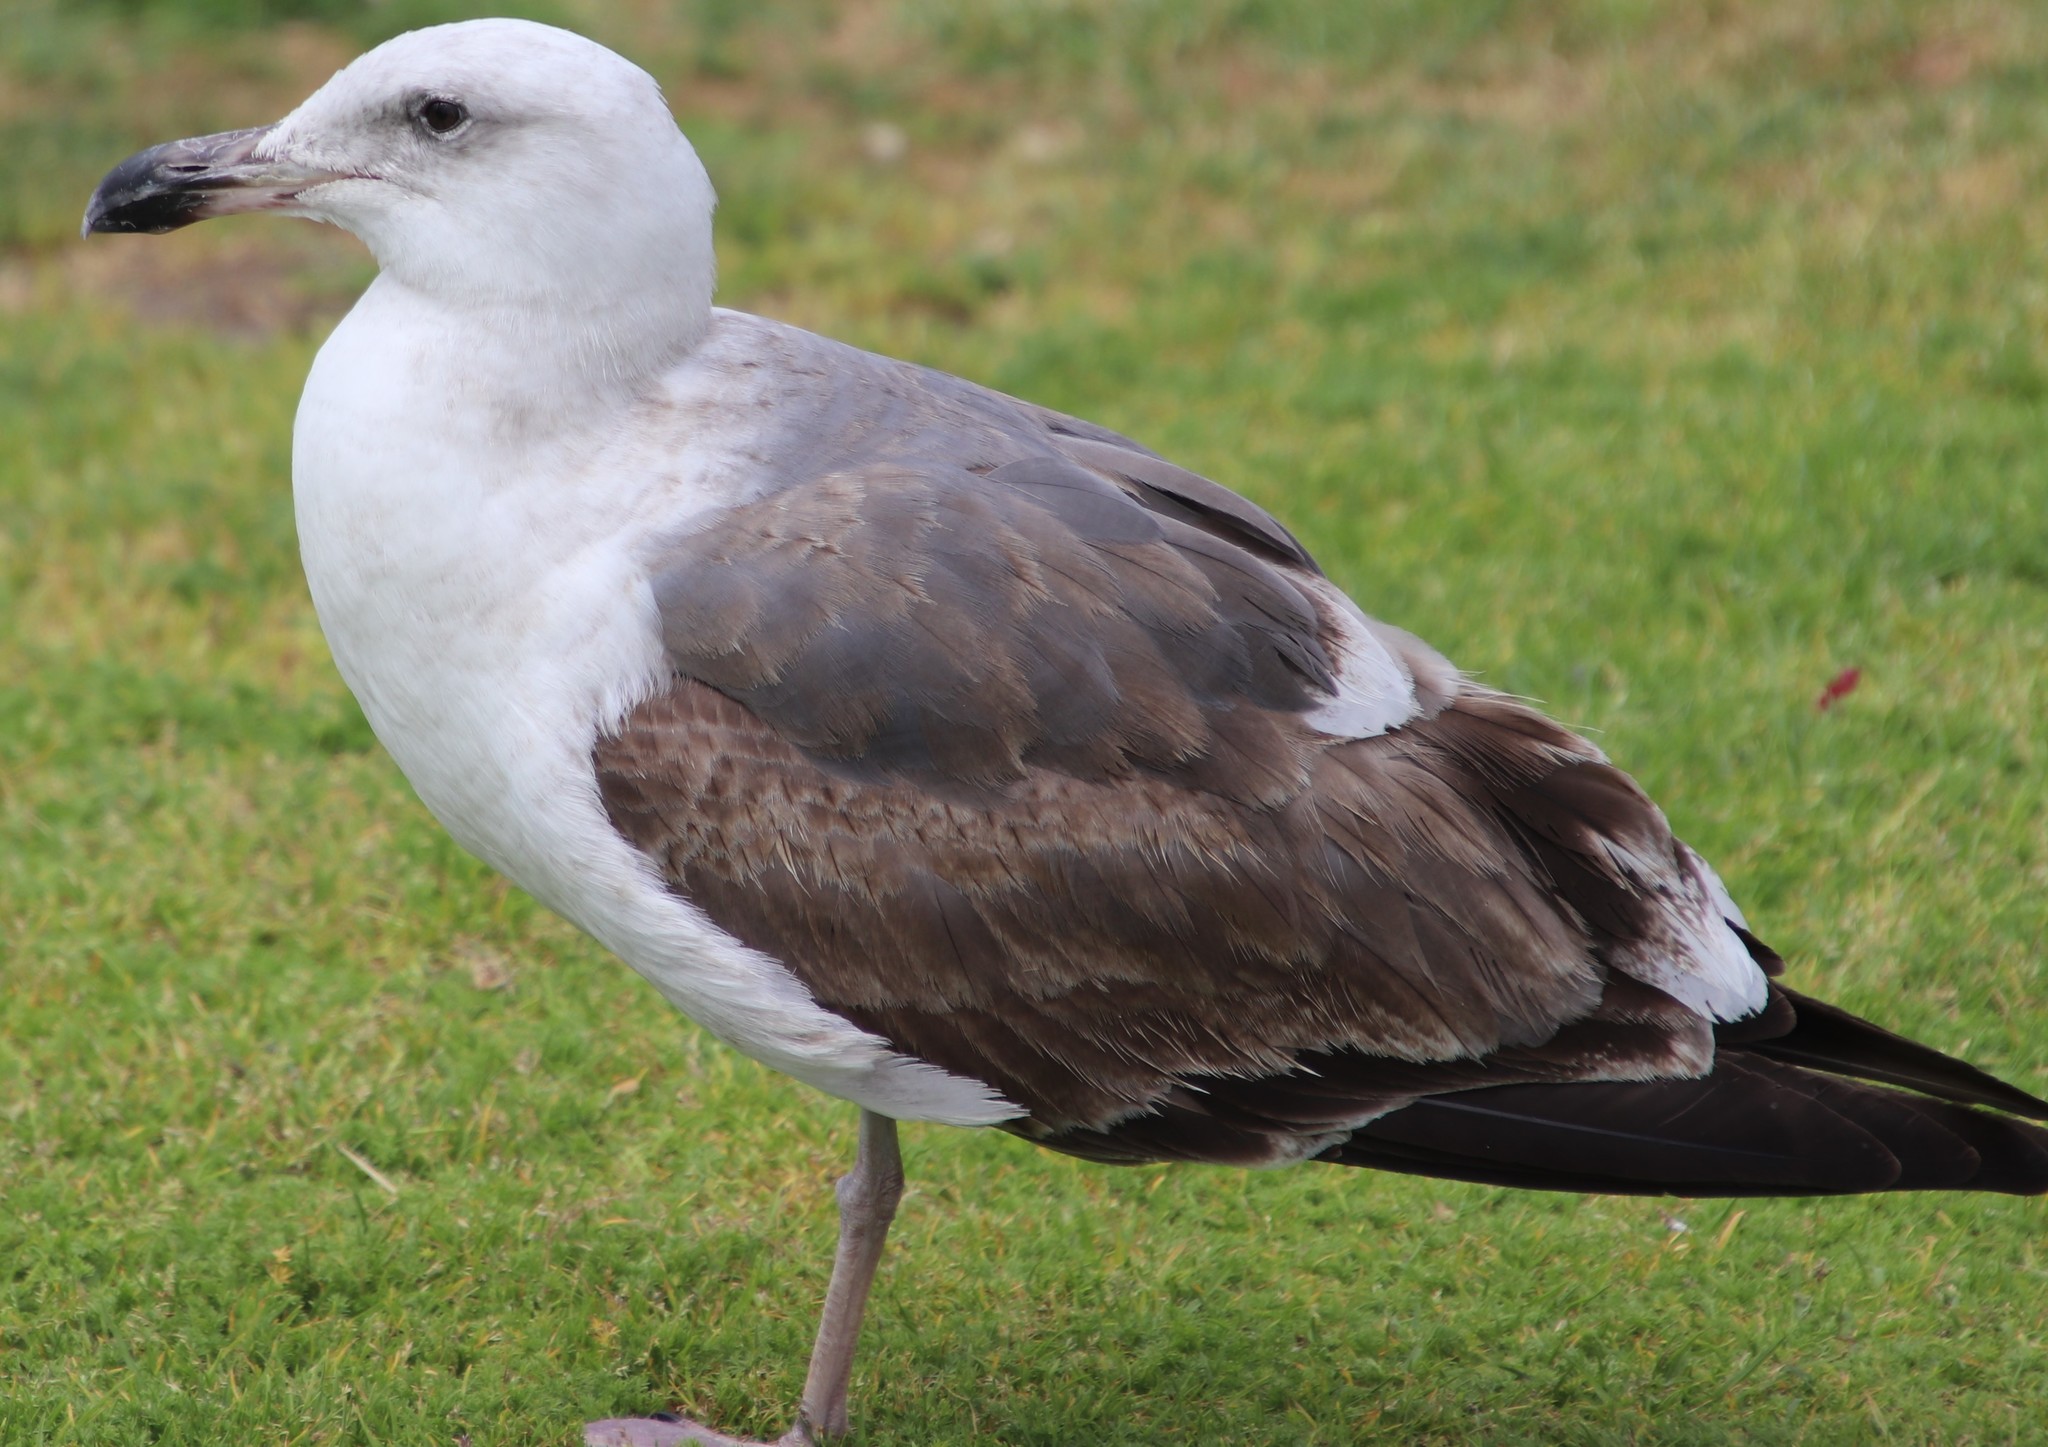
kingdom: Animalia
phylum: Chordata
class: Aves
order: Charadriiformes
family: Laridae
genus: Larus
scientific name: Larus occidentalis
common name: Western gull
